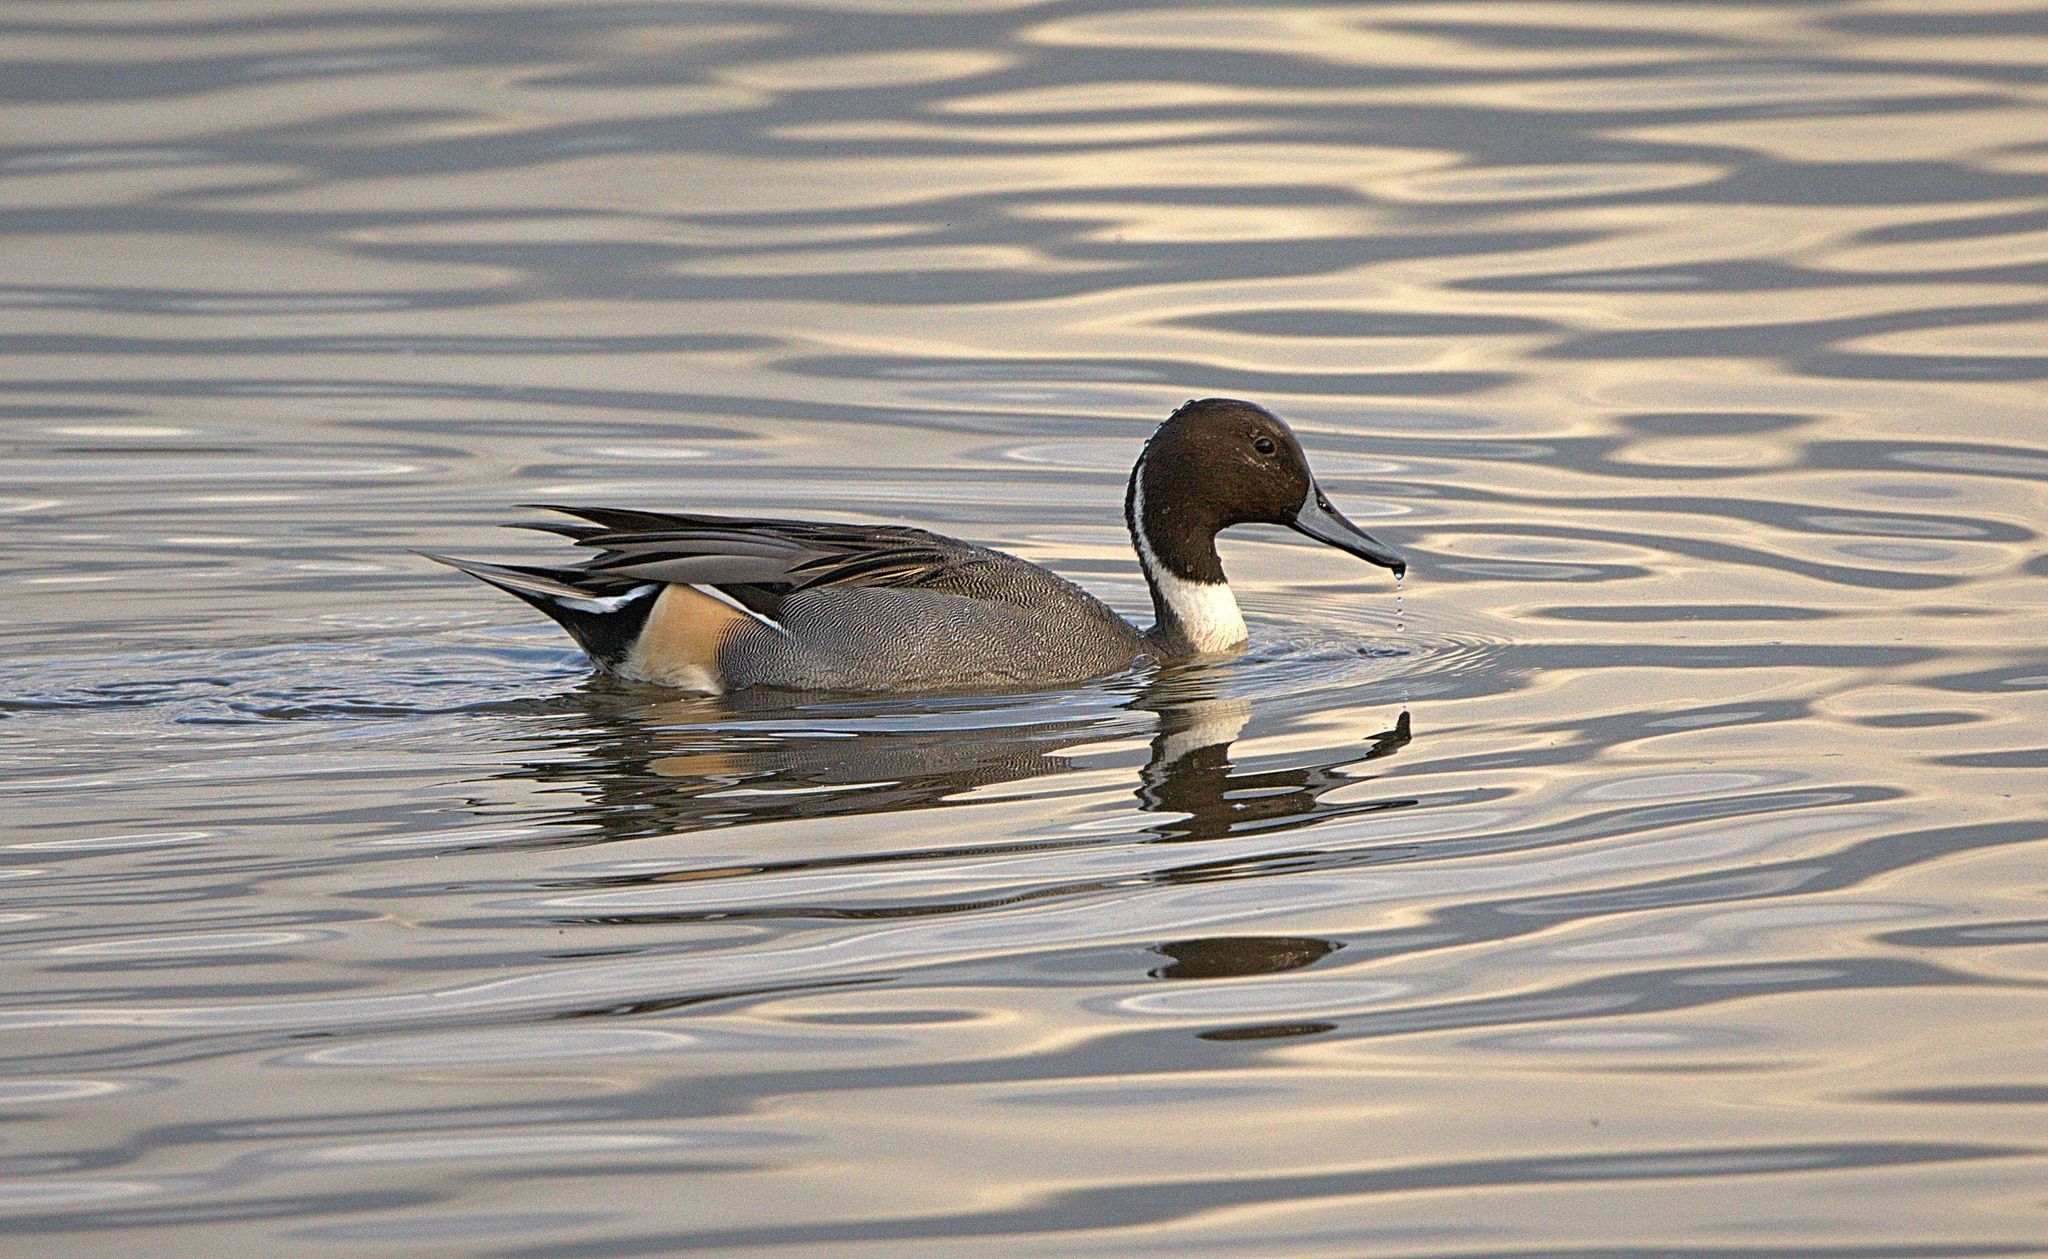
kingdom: Animalia
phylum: Chordata
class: Aves
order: Anseriformes
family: Anatidae
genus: Anas
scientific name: Anas acuta
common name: Northern pintail
